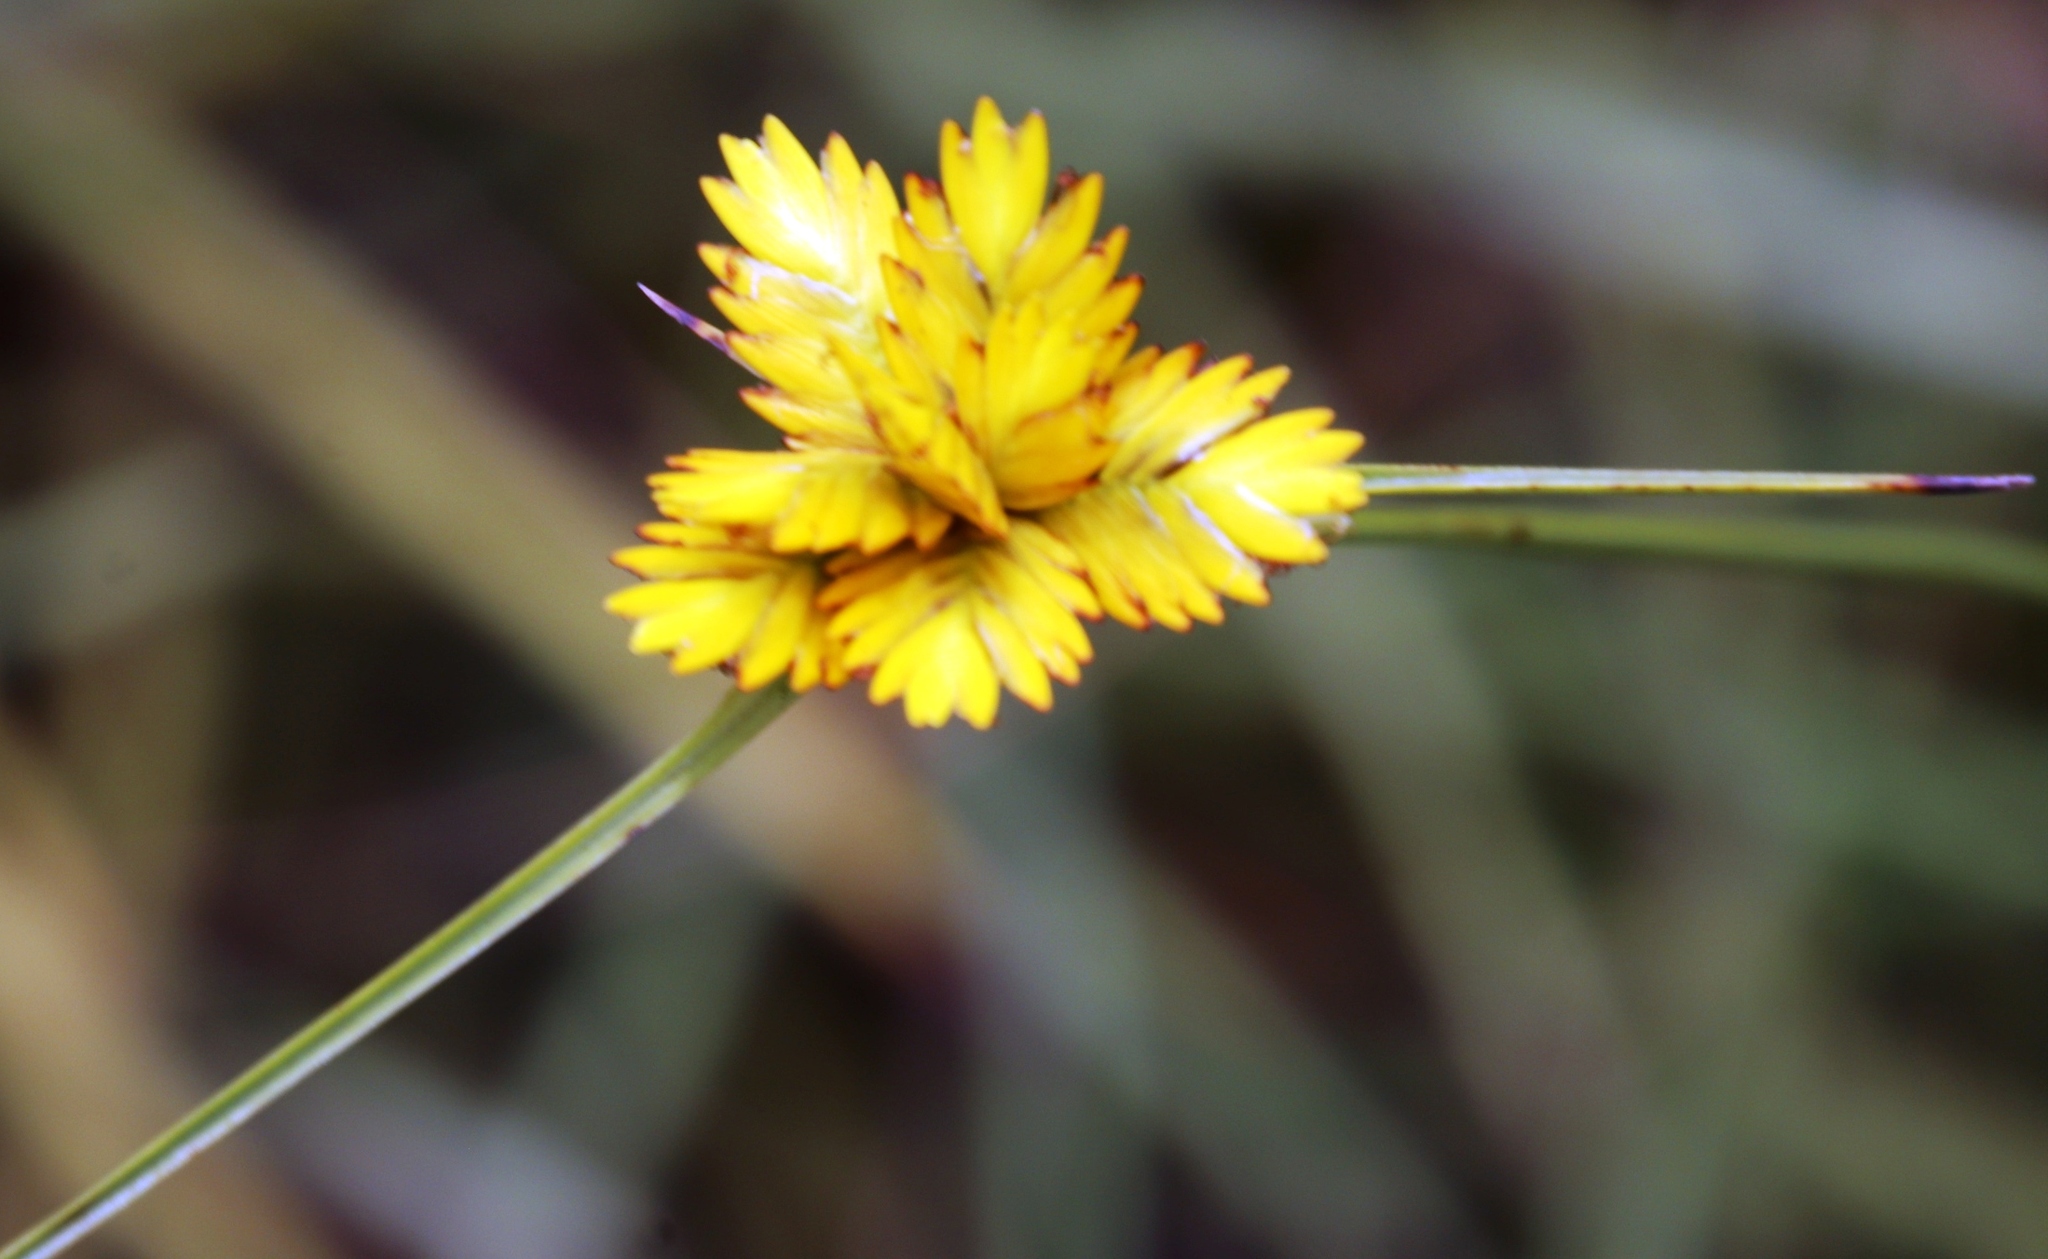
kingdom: Plantae
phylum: Tracheophyta
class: Liliopsida
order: Poales
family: Cyperaceae
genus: Cyperus
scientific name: Cyperus sphaerocephalus
